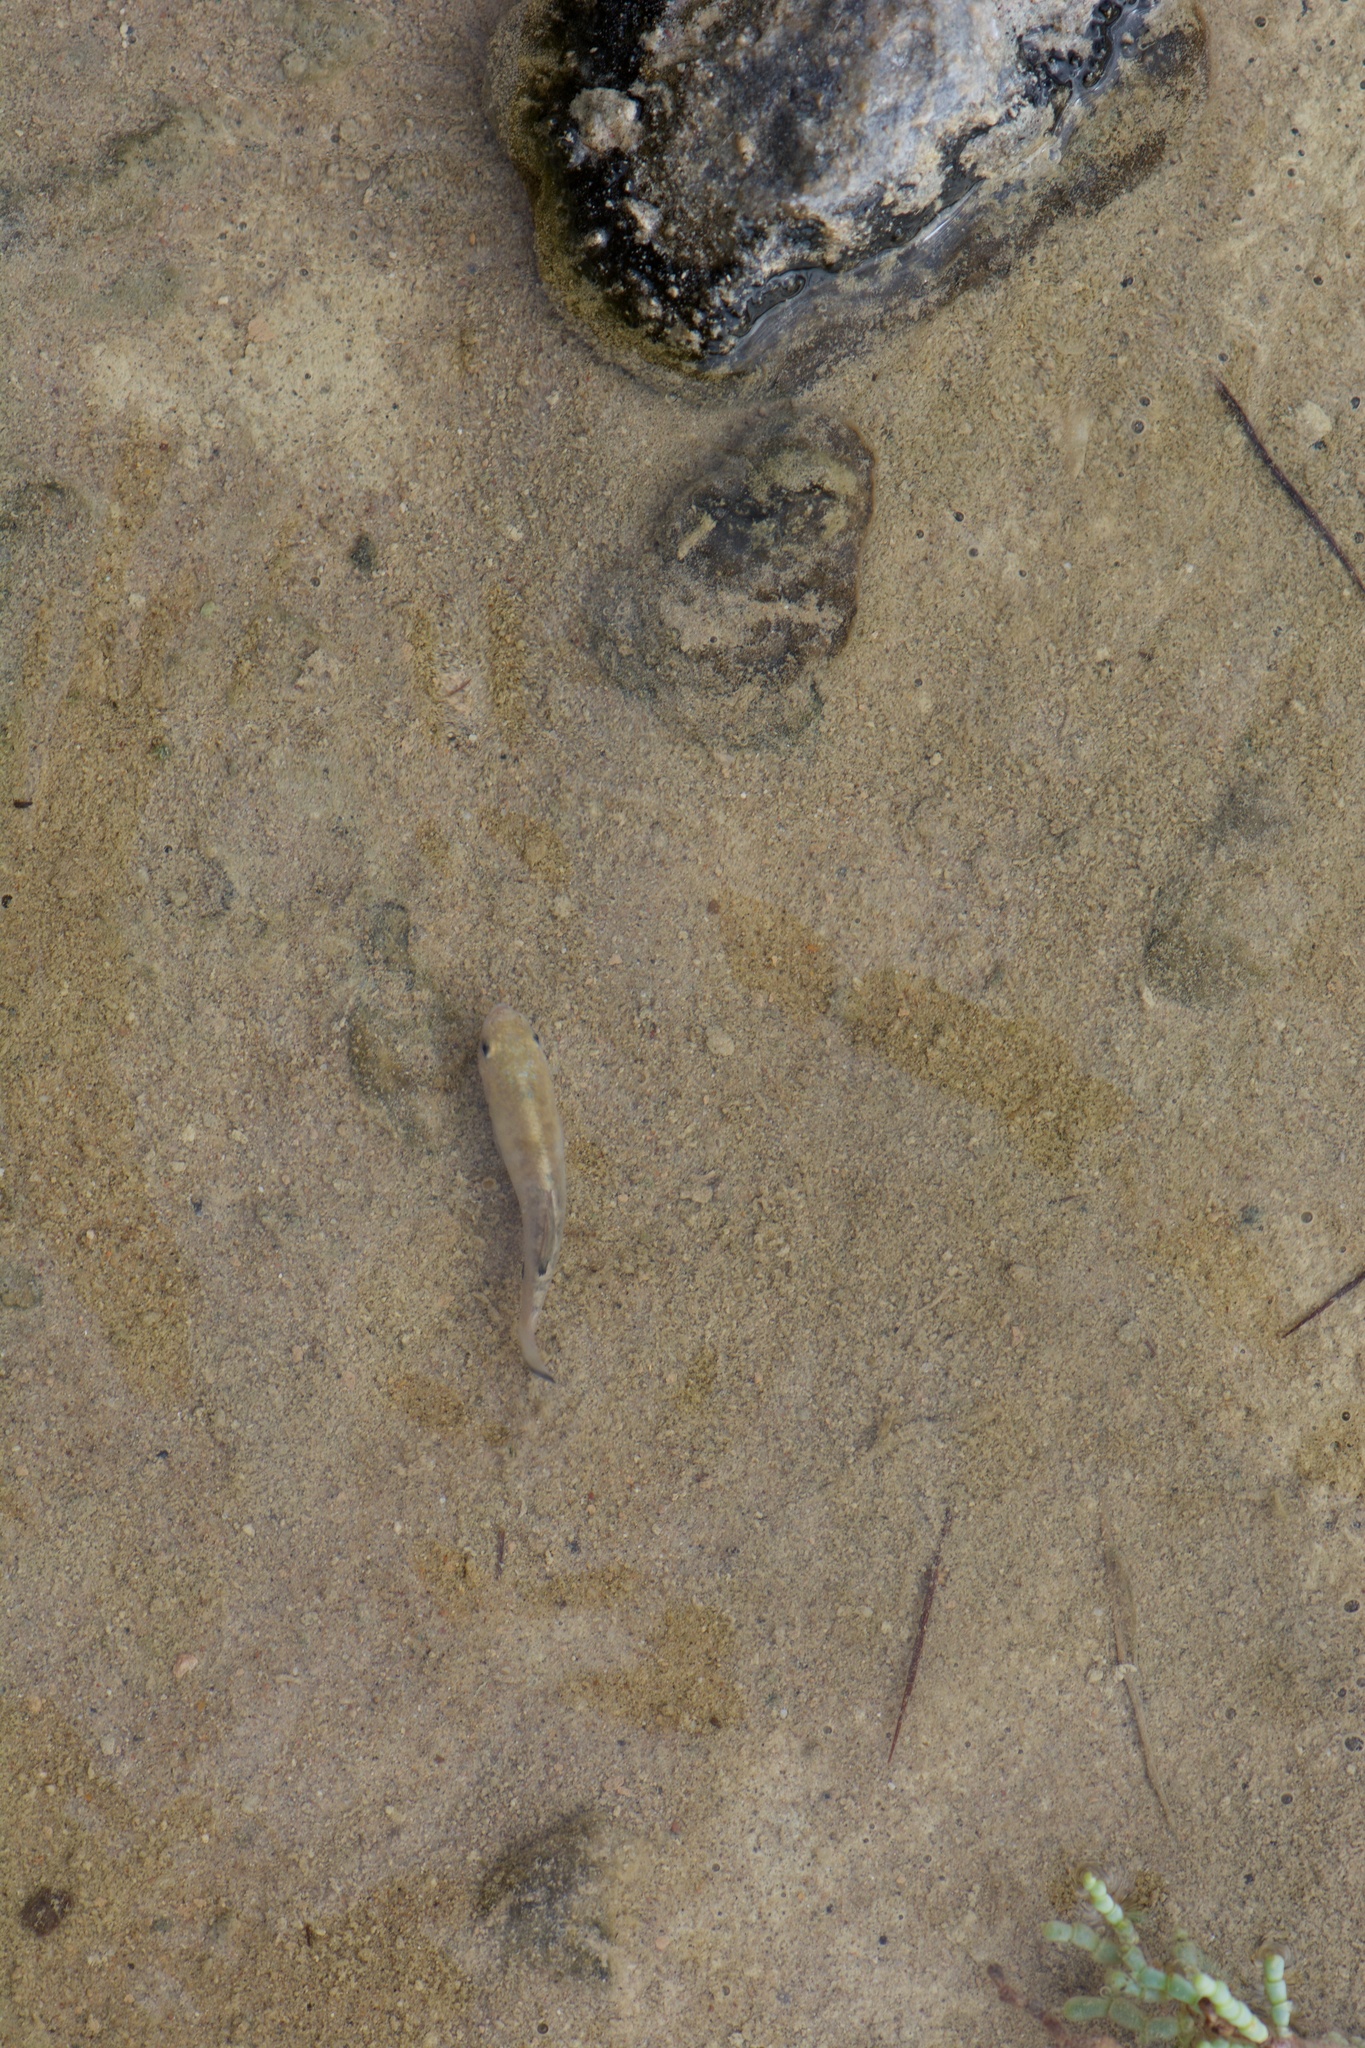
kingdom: Animalia
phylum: Chordata
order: Cyprinodontiformes
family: Cyprinodontidae
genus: Cyprinodon
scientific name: Cyprinodon salinus
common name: Cottonball marsh pupfish
